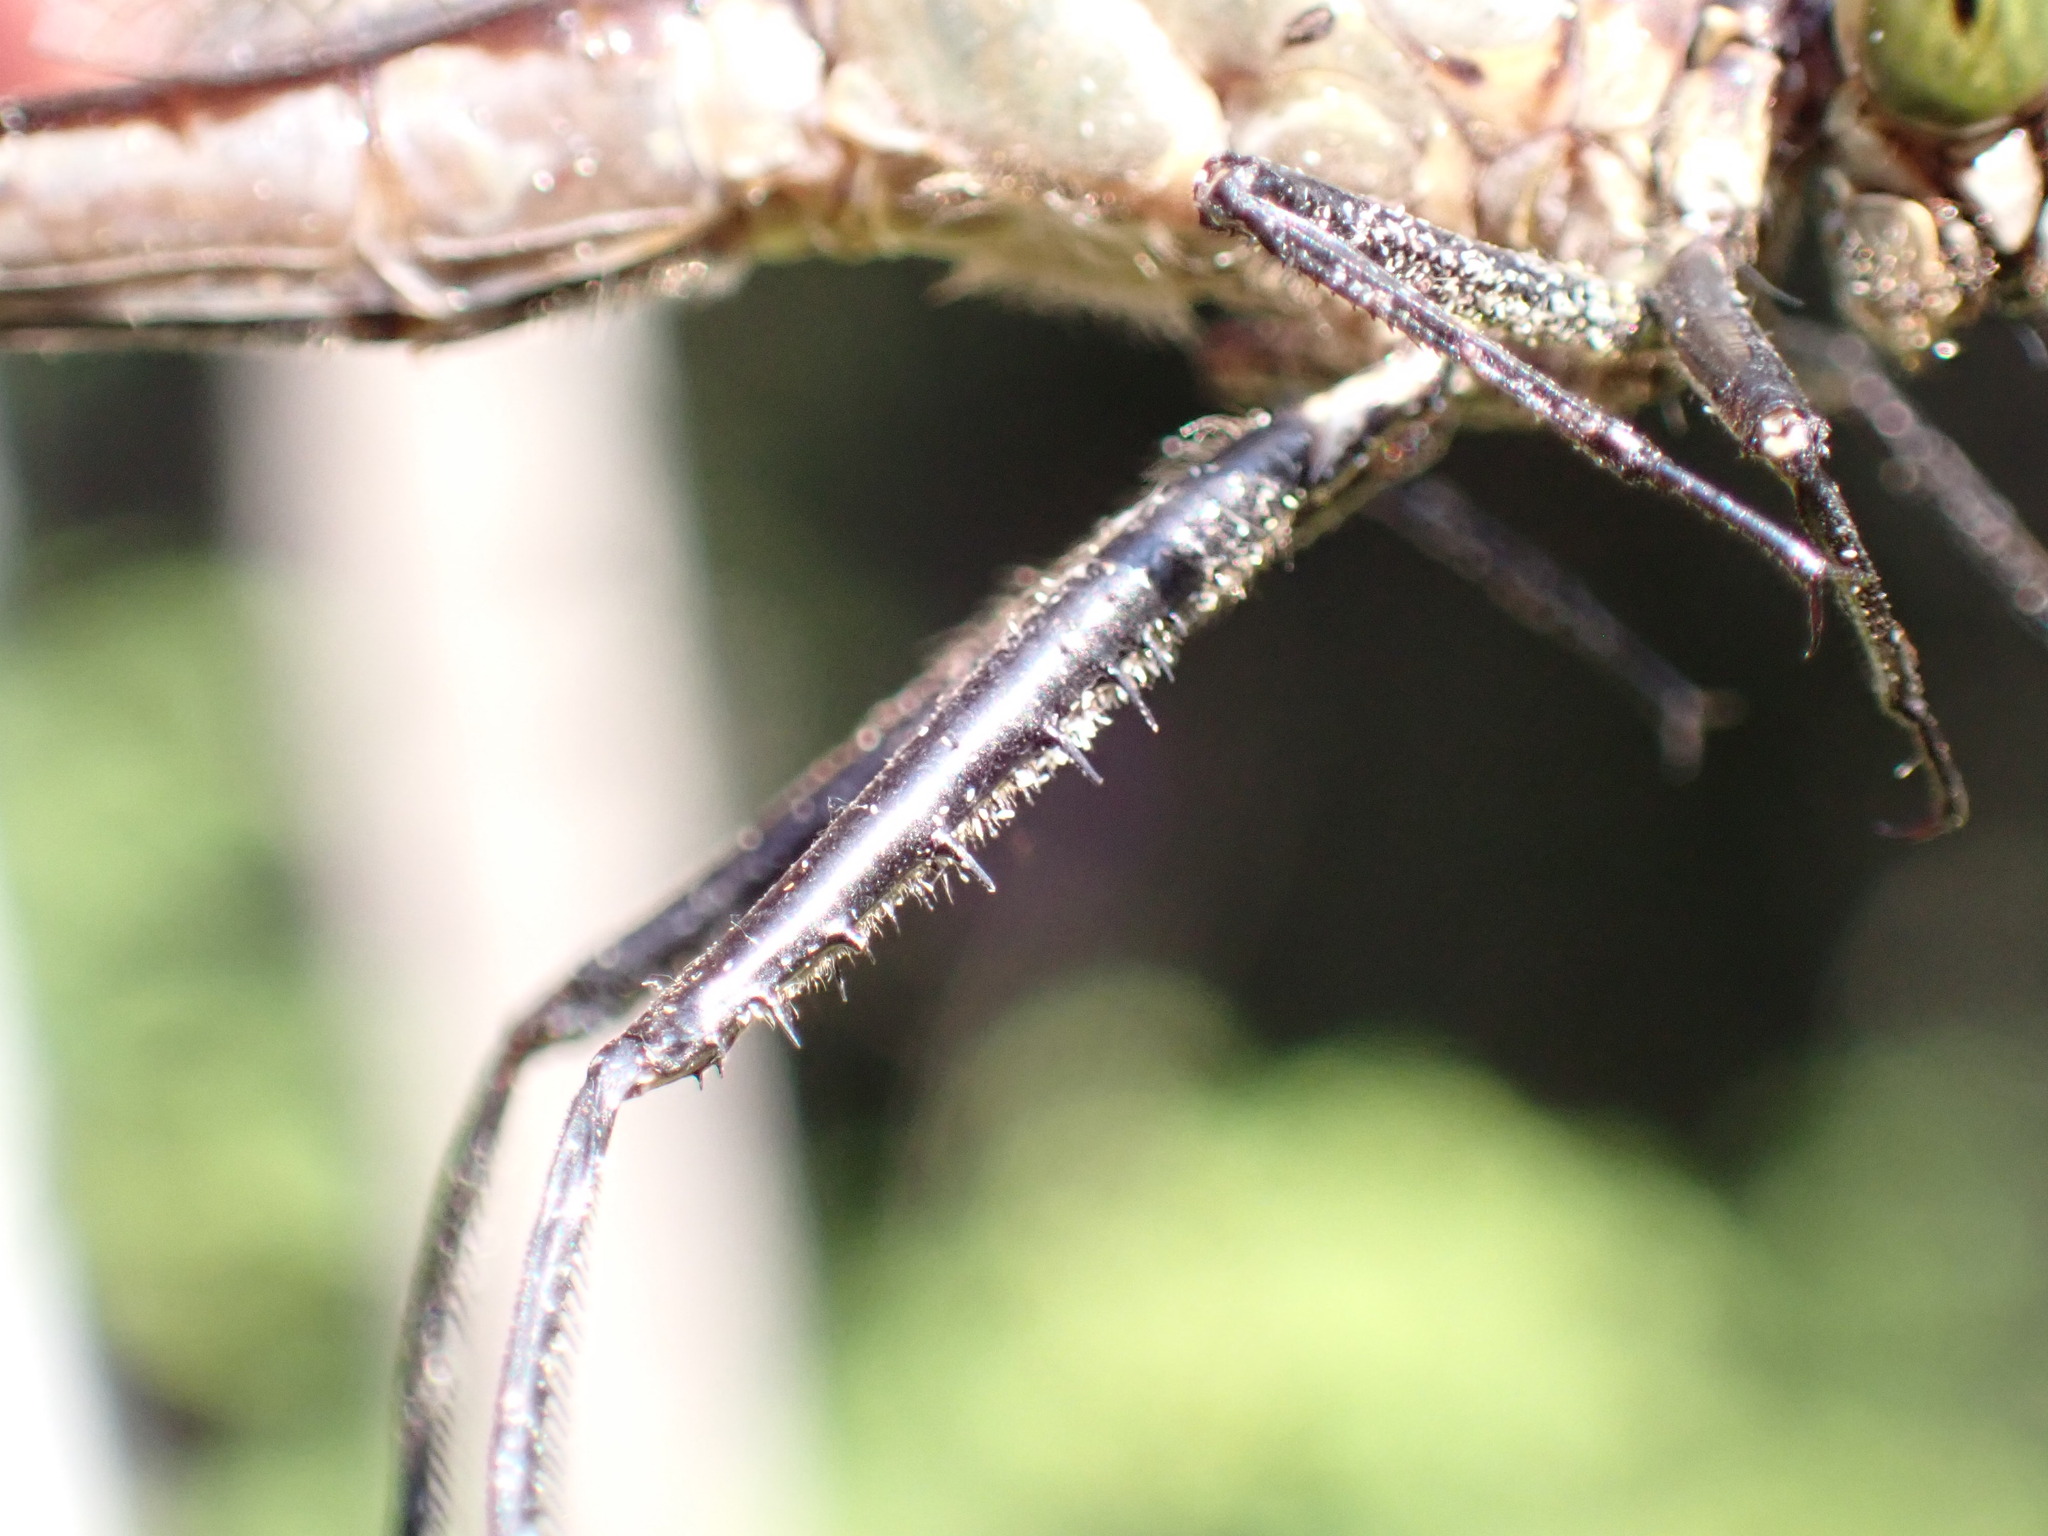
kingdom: Animalia
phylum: Arthropoda
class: Insecta
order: Odonata
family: Gomphidae
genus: Dromogomphus
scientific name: Dromogomphus spinosus
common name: Black-shouldered spinyleg
